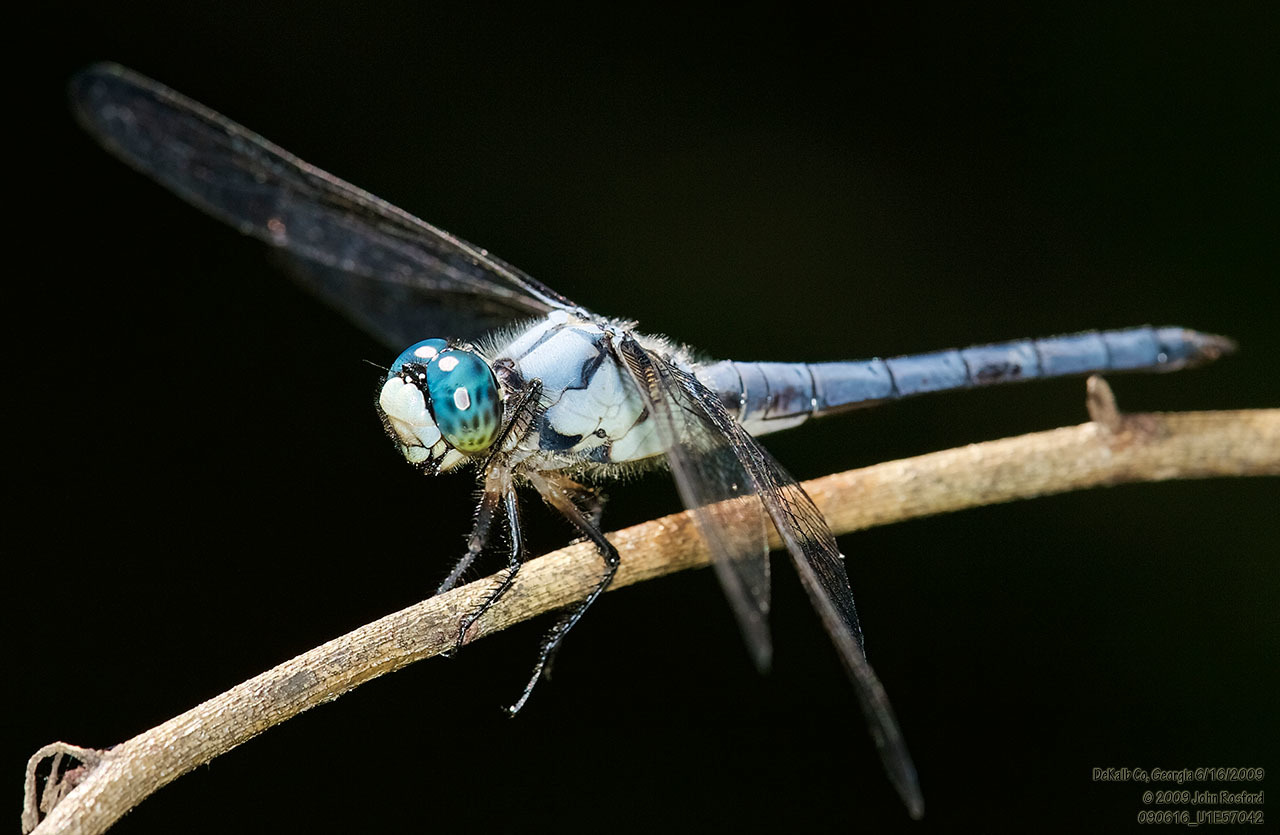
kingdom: Animalia
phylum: Arthropoda
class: Insecta
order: Odonata
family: Libellulidae
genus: Libellula
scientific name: Libellula vibrans
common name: Great blue skimmer
